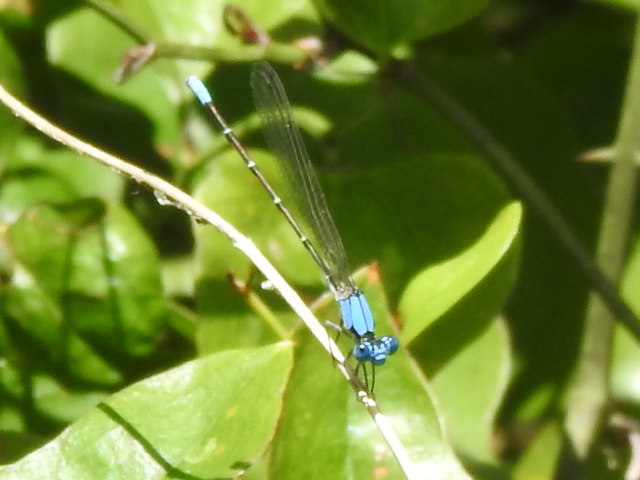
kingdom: Animalia
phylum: Arthropoda
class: Insecta
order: Odonata
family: Coenagrionidae
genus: Argia
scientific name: Argia apicalis
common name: Blue-fronted dancer
